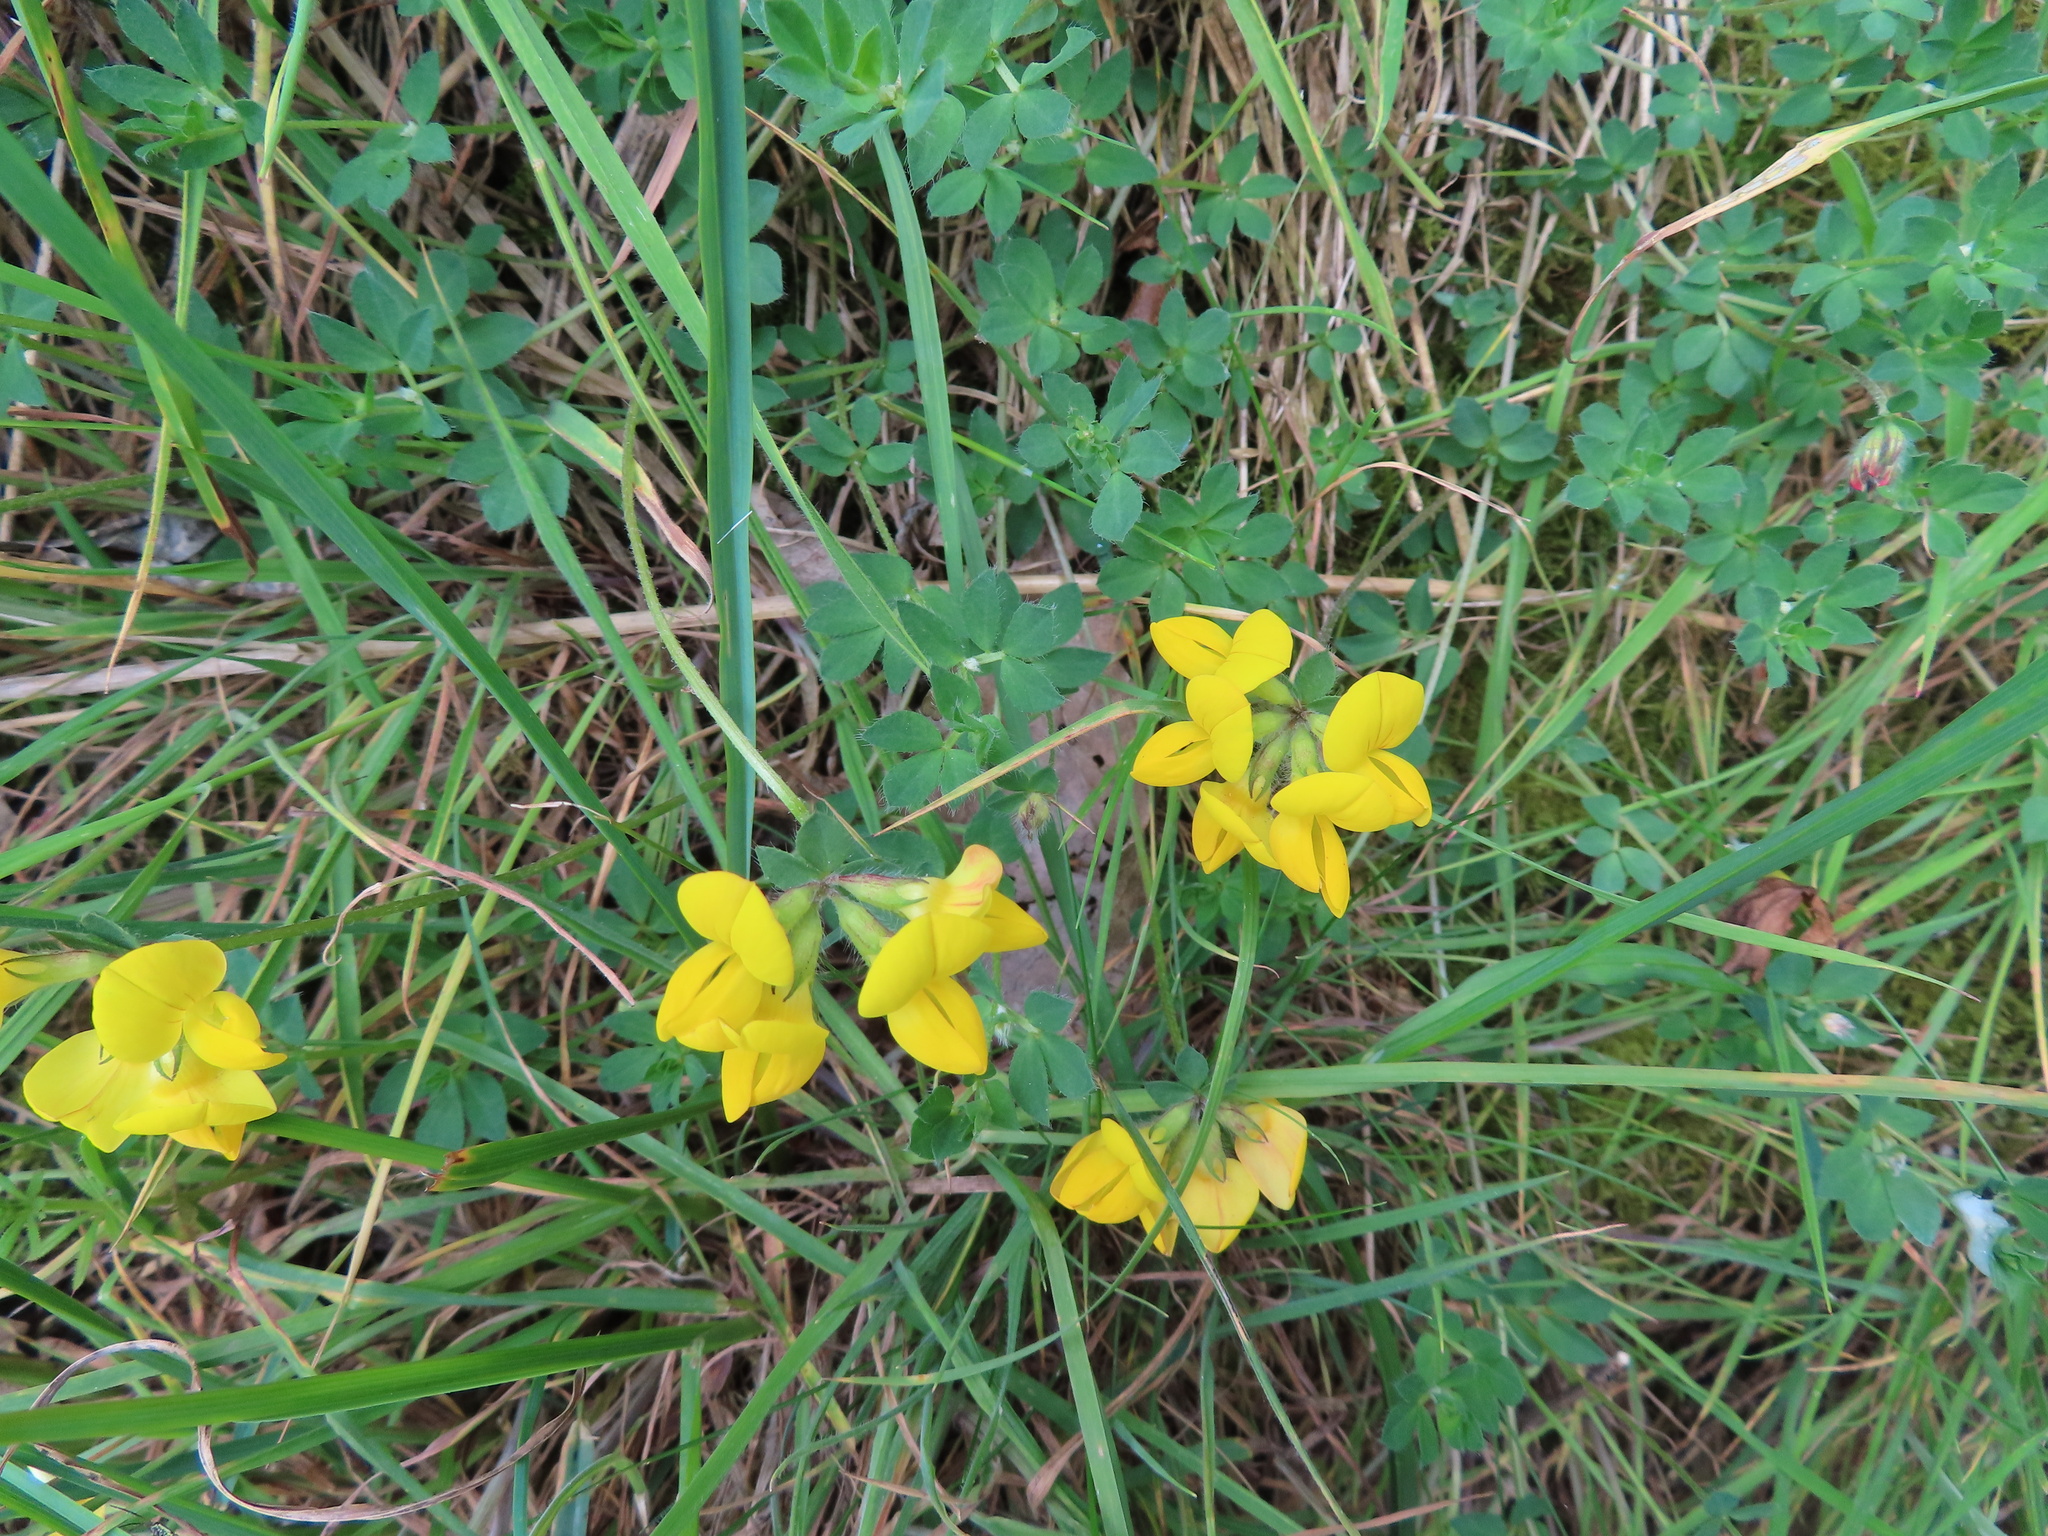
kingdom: Plantae
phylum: Tracheophyta
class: Magnoliopsida
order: Fabales
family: Fabaceae
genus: Lotus
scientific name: Lotus corniculatus
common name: Common bird's-foot-trefoil
